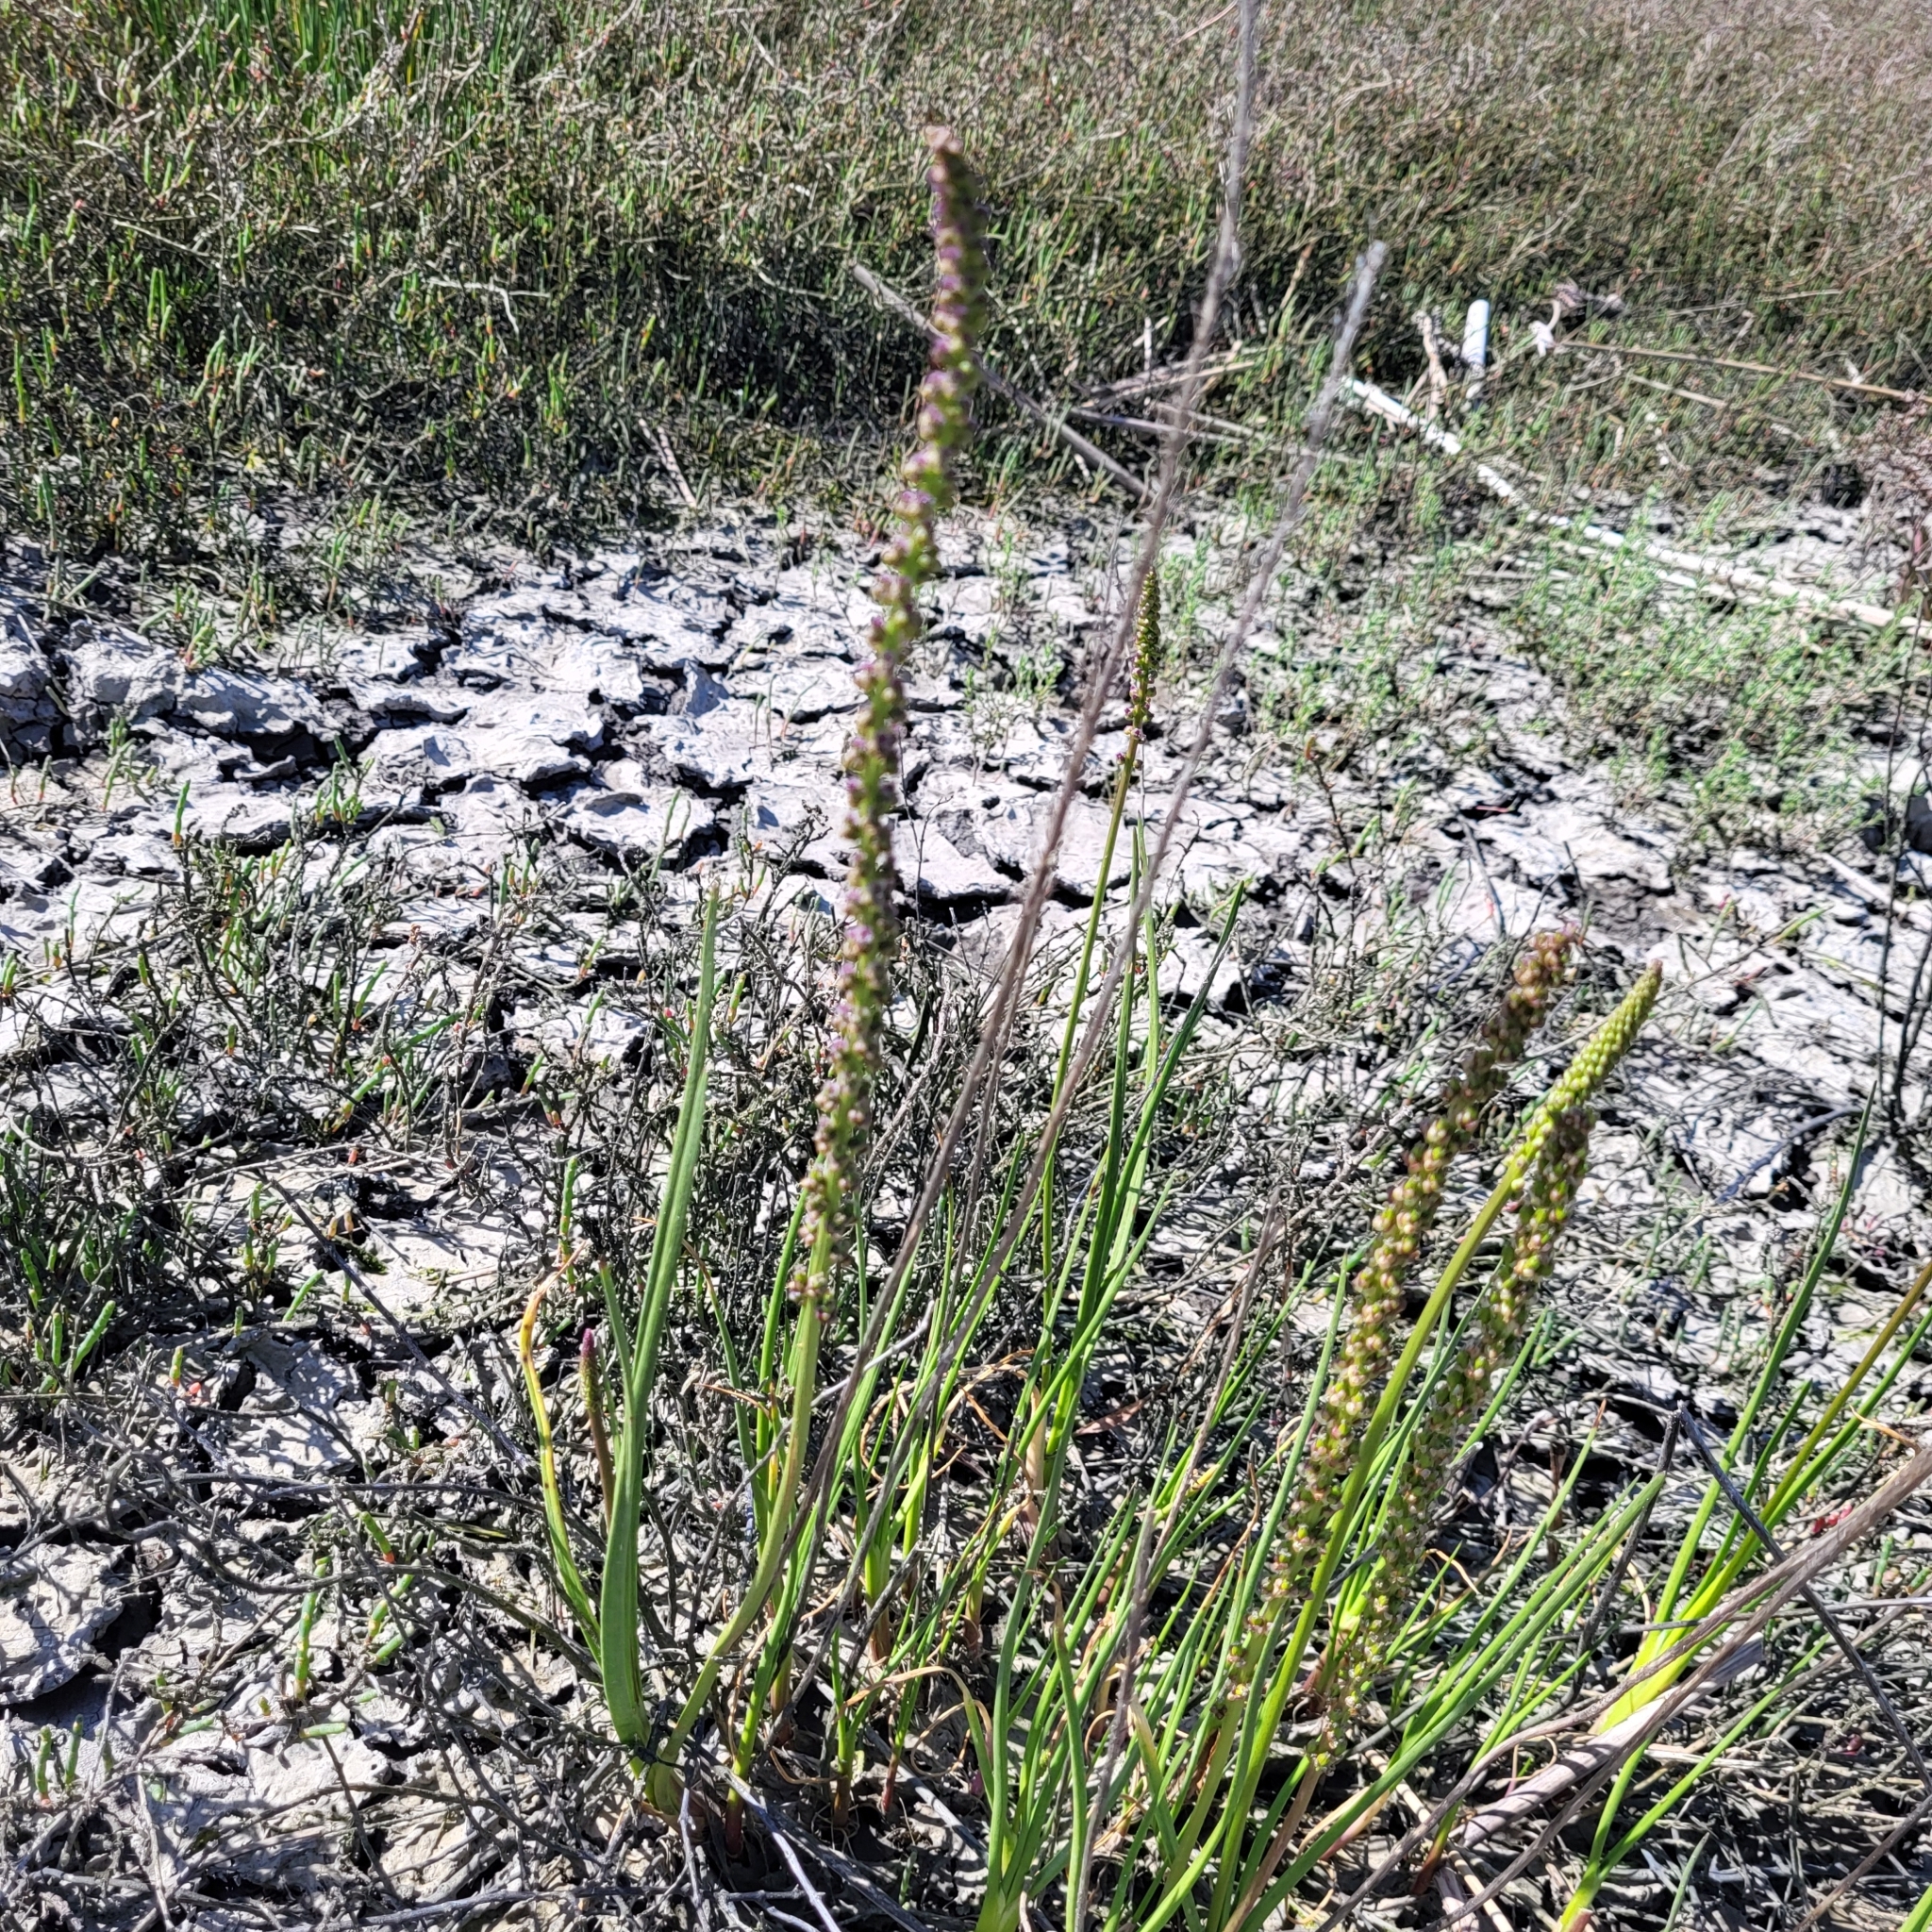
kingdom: Plantae
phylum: Tracheophyta
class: Liliopsida
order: Alismatales
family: Juncaginaceae
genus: Triglochin
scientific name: Triglochin maritima
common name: Sea arrowgrass
